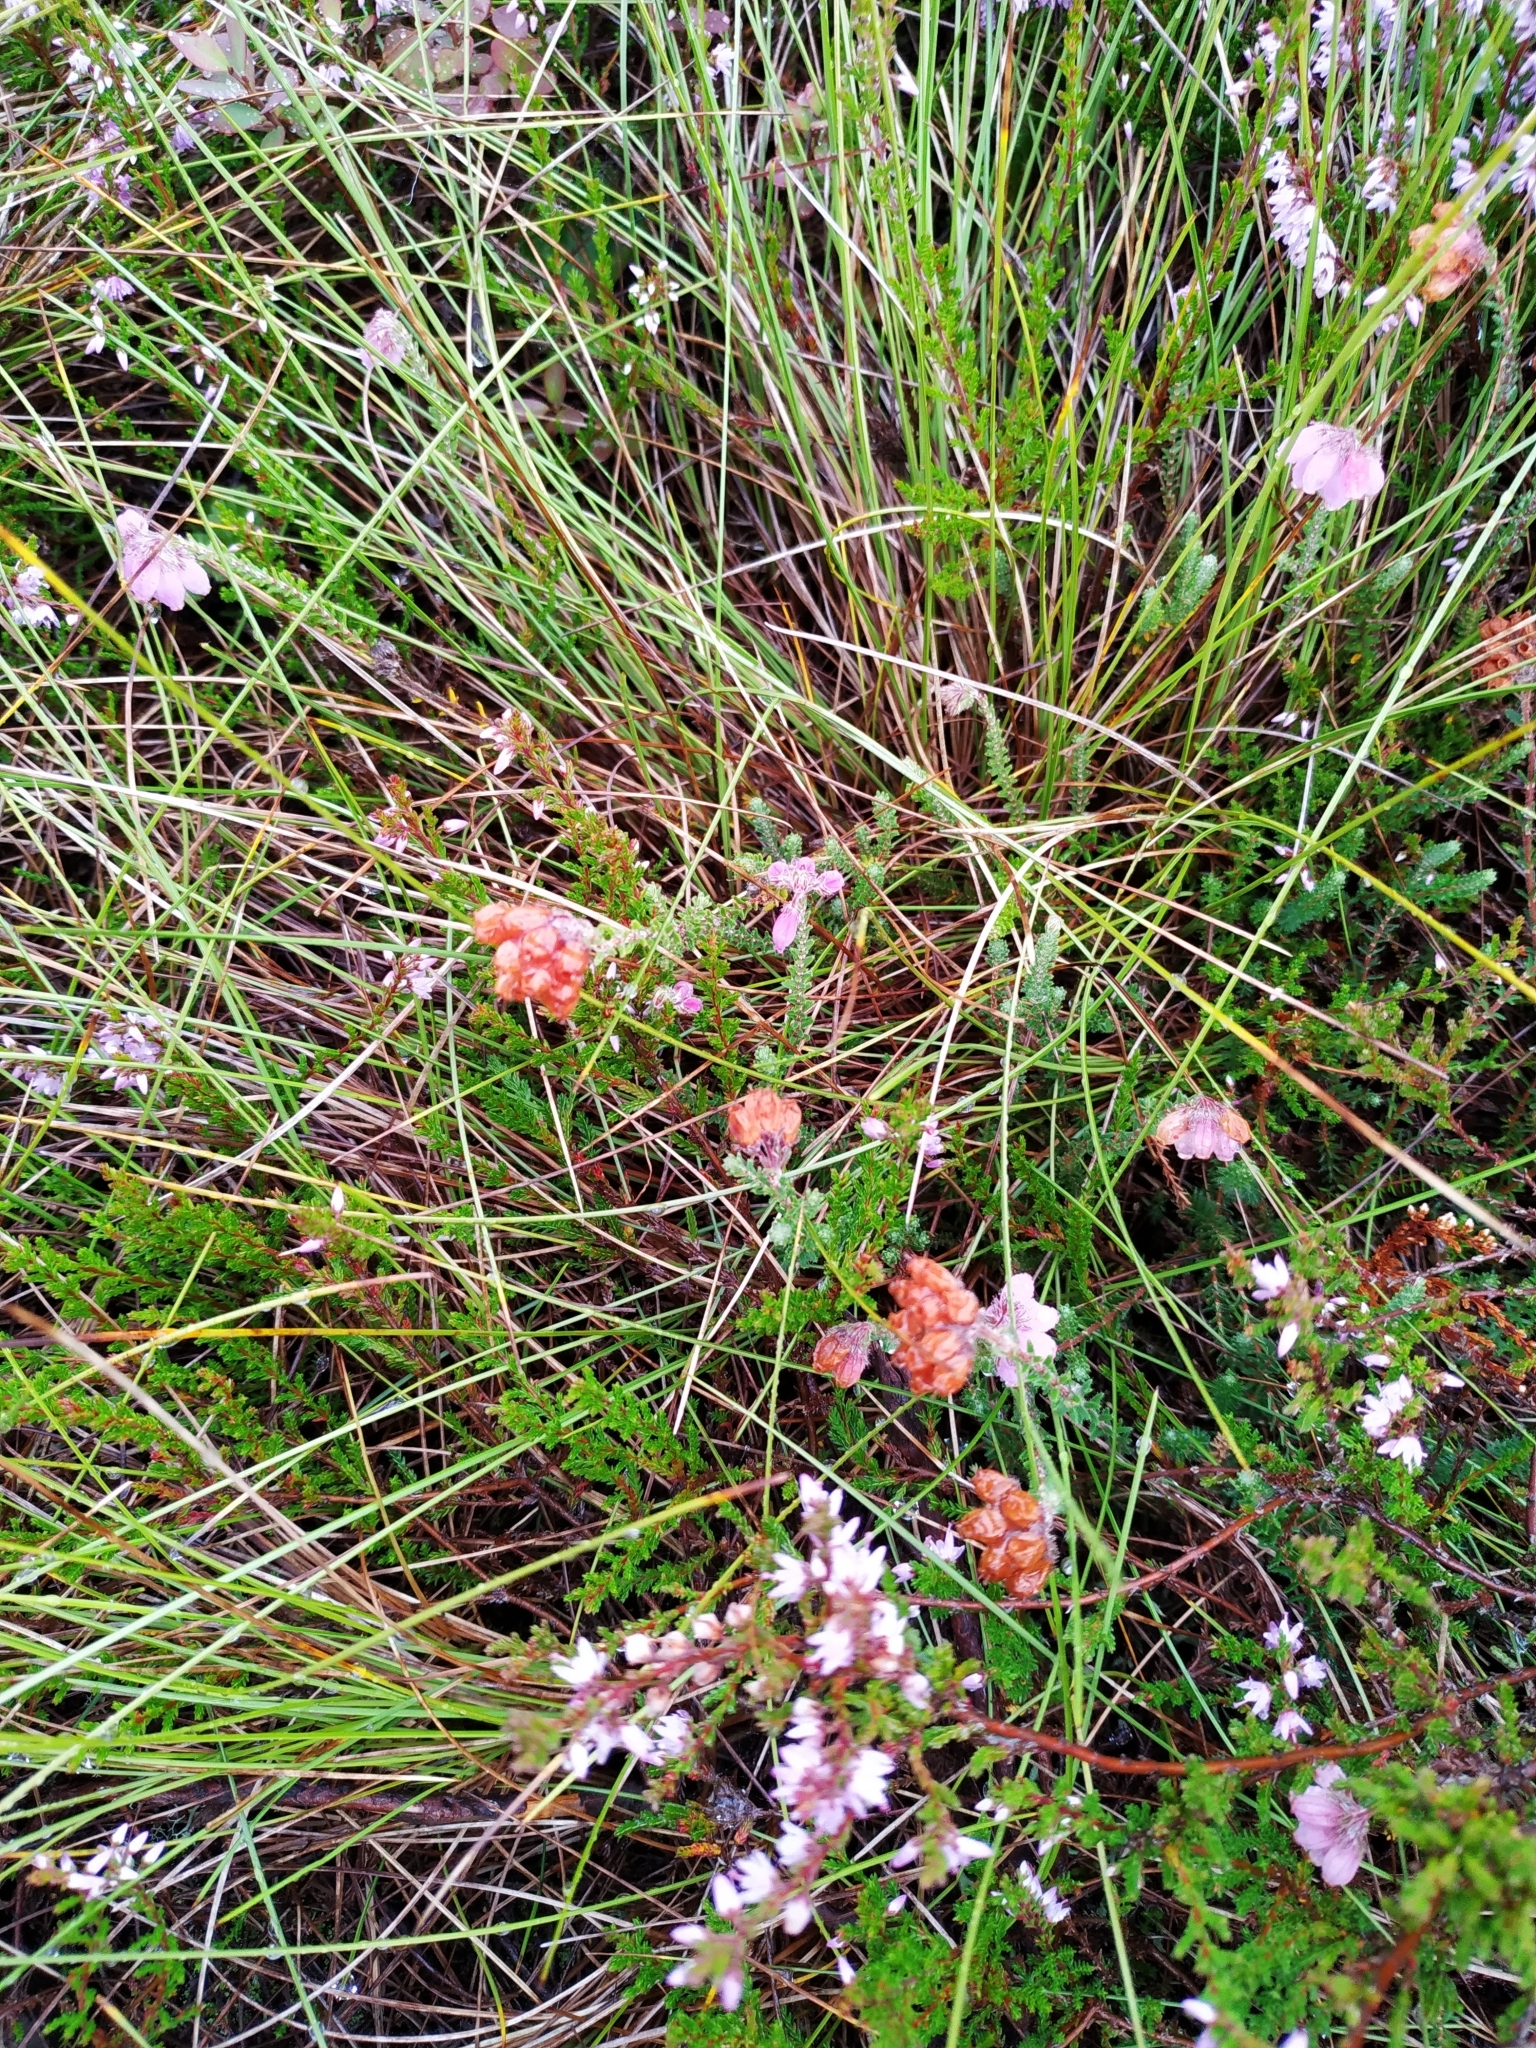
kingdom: Plantae
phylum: Tracheophyta
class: Magnoliopsida
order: Ericales
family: Ericaceae
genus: Erica
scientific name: Erica tetralix
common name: Cross-leaved heath
